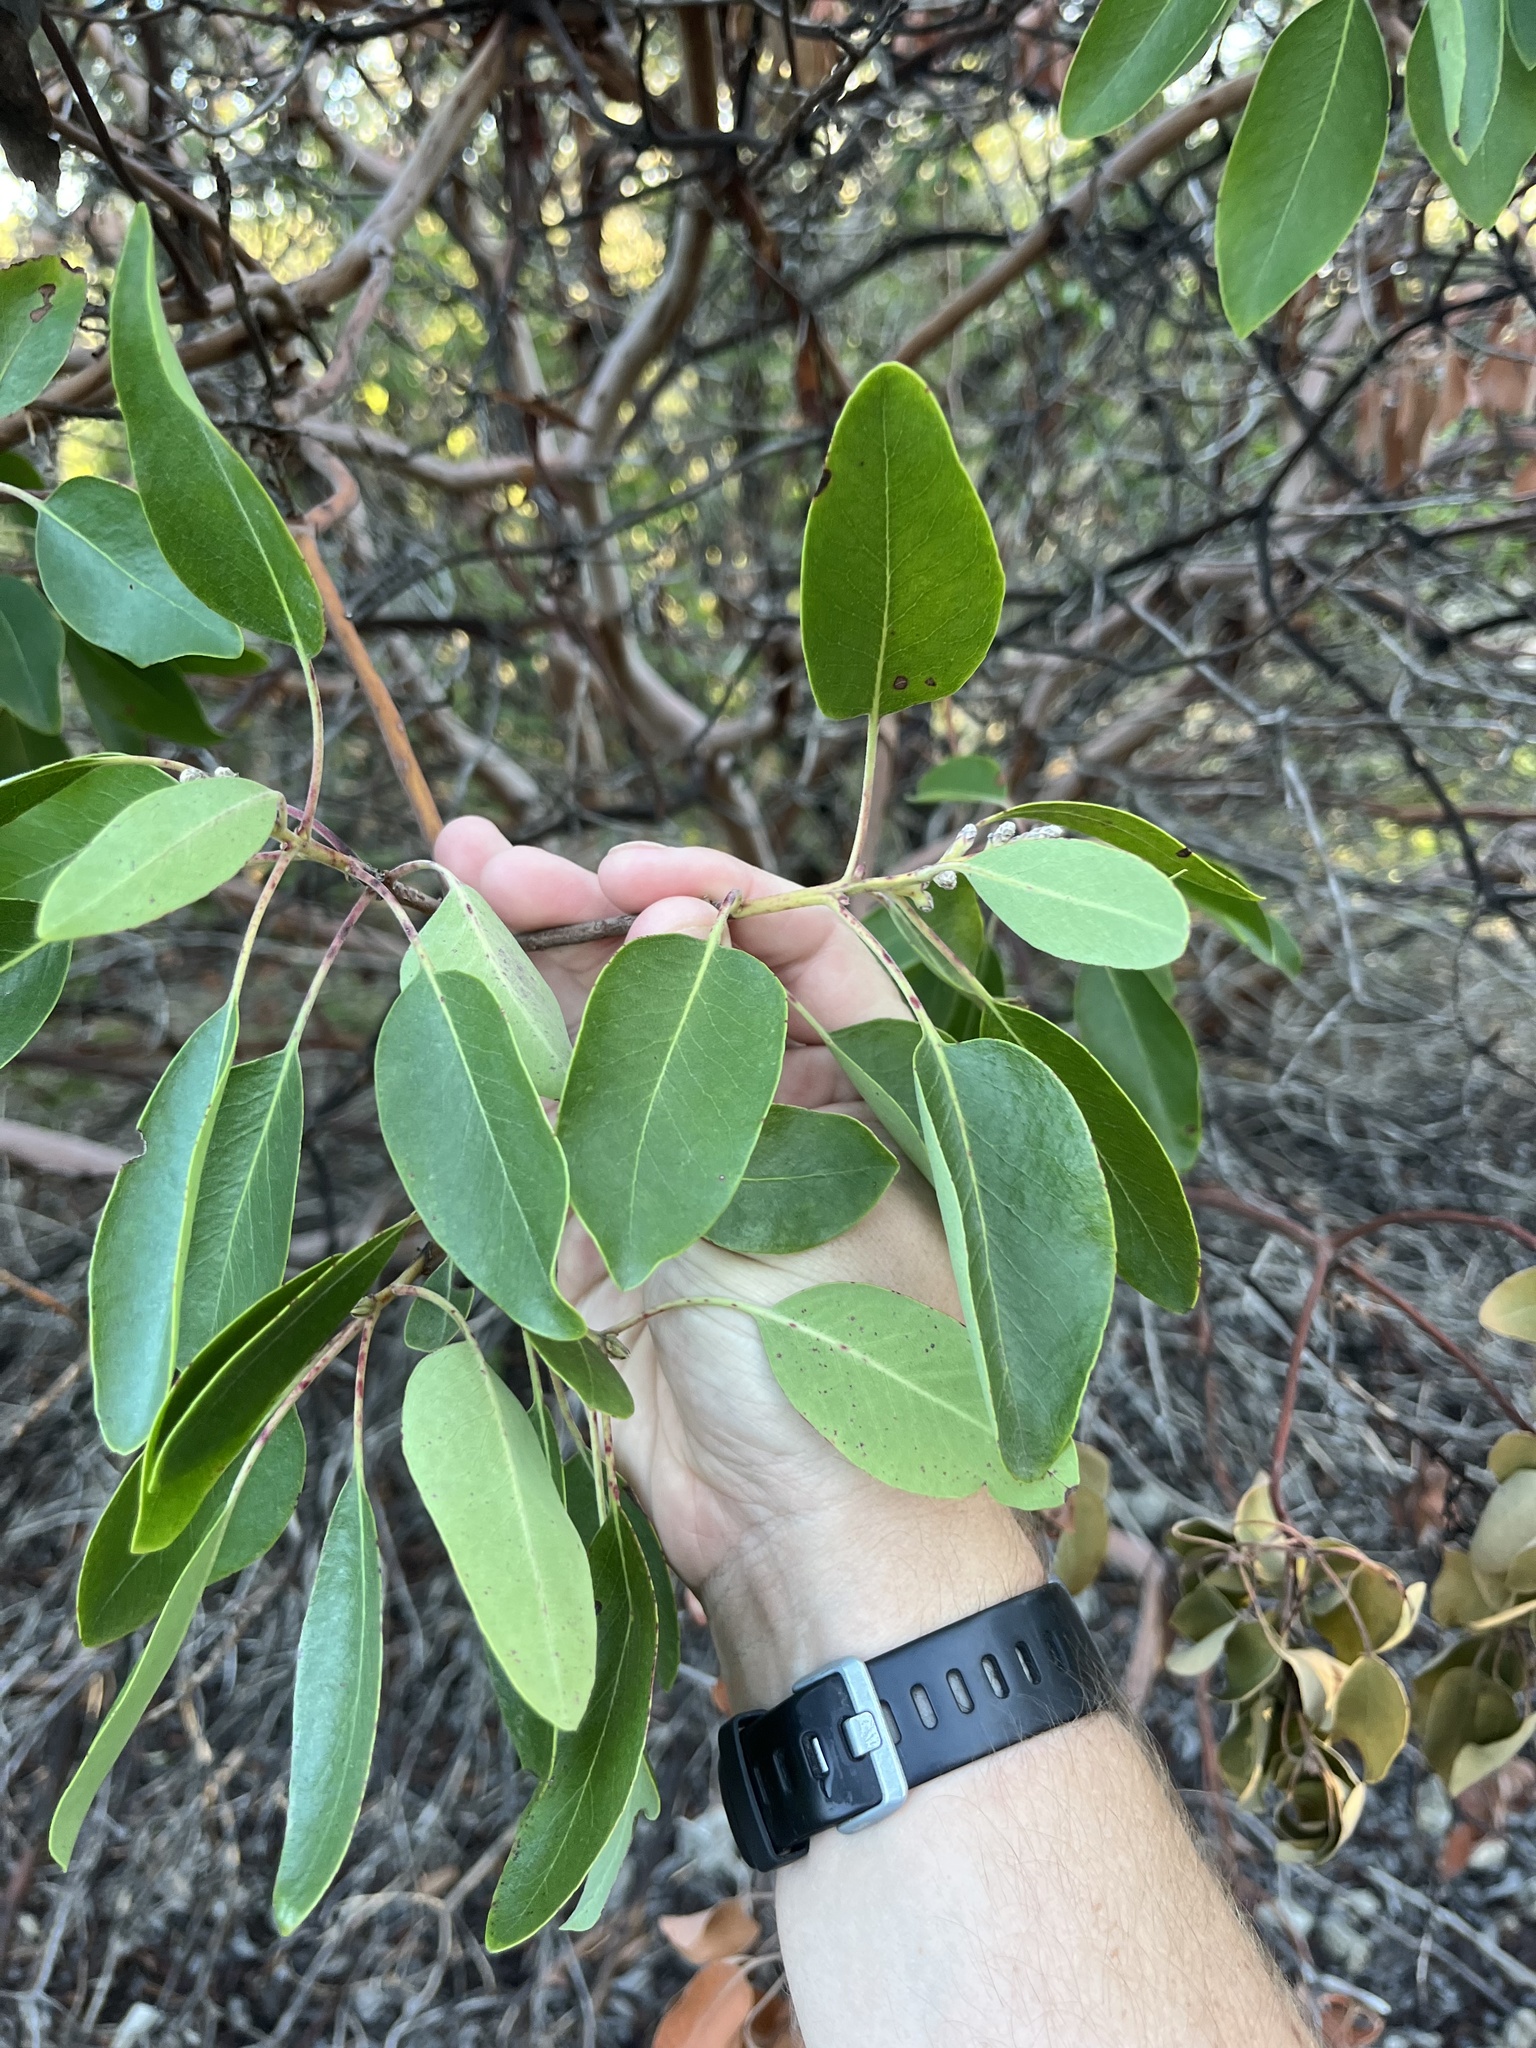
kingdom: Plantae
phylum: Tracheophyta
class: Magnoliopsida
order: Ericales
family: Ericaceae
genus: Arbutus
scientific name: Arbutus xalapensis
